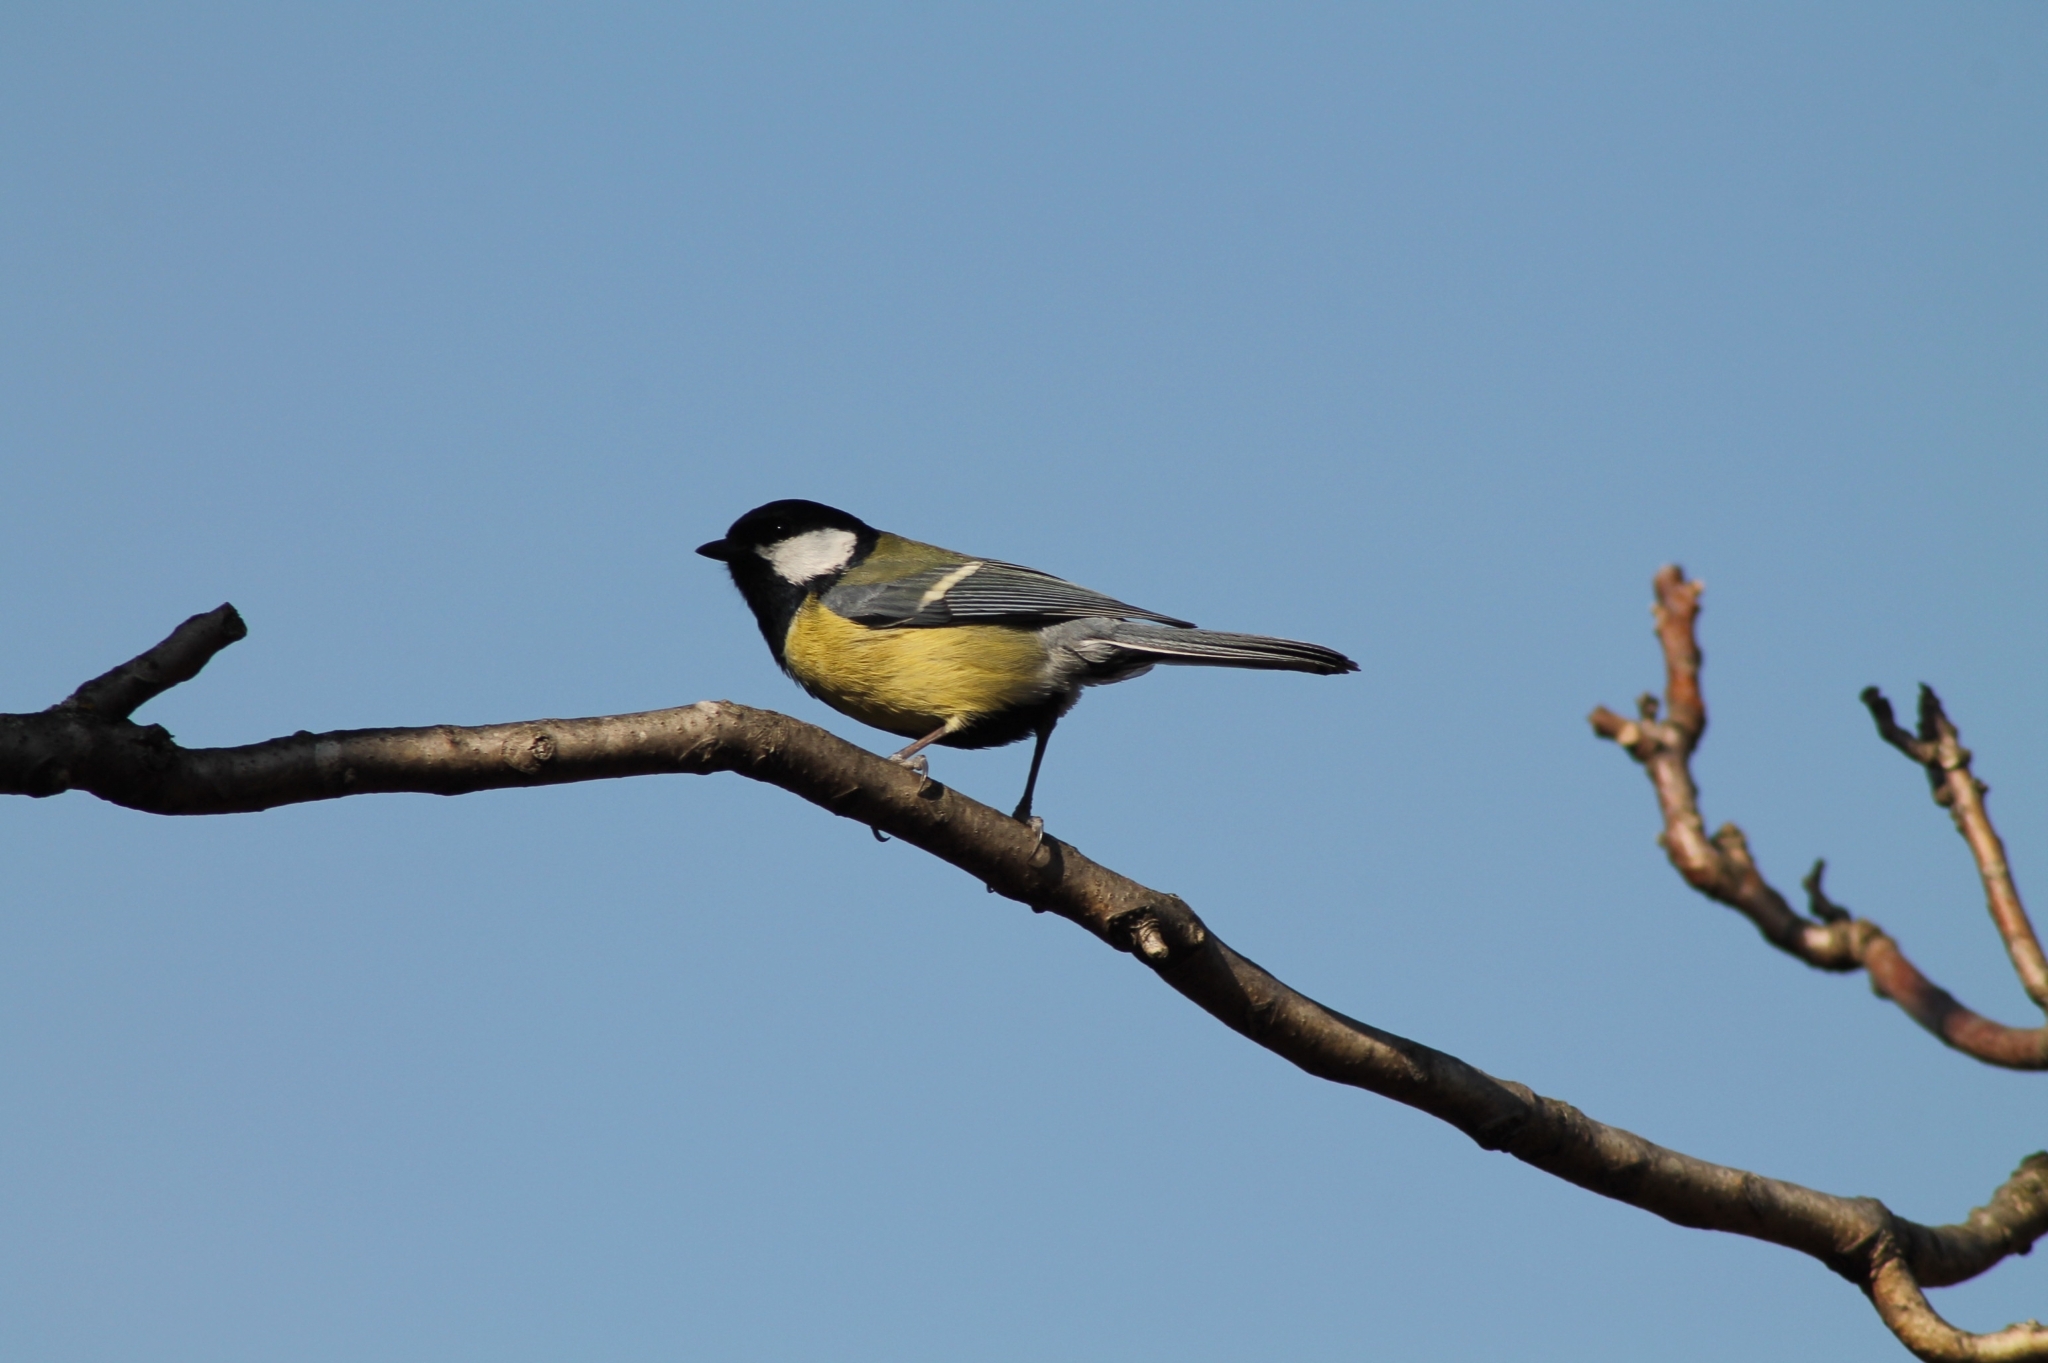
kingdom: Animalia
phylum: Chordata
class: Aves
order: Passeriformes
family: Paridae
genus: Parus
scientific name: Parus major
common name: Great tit
